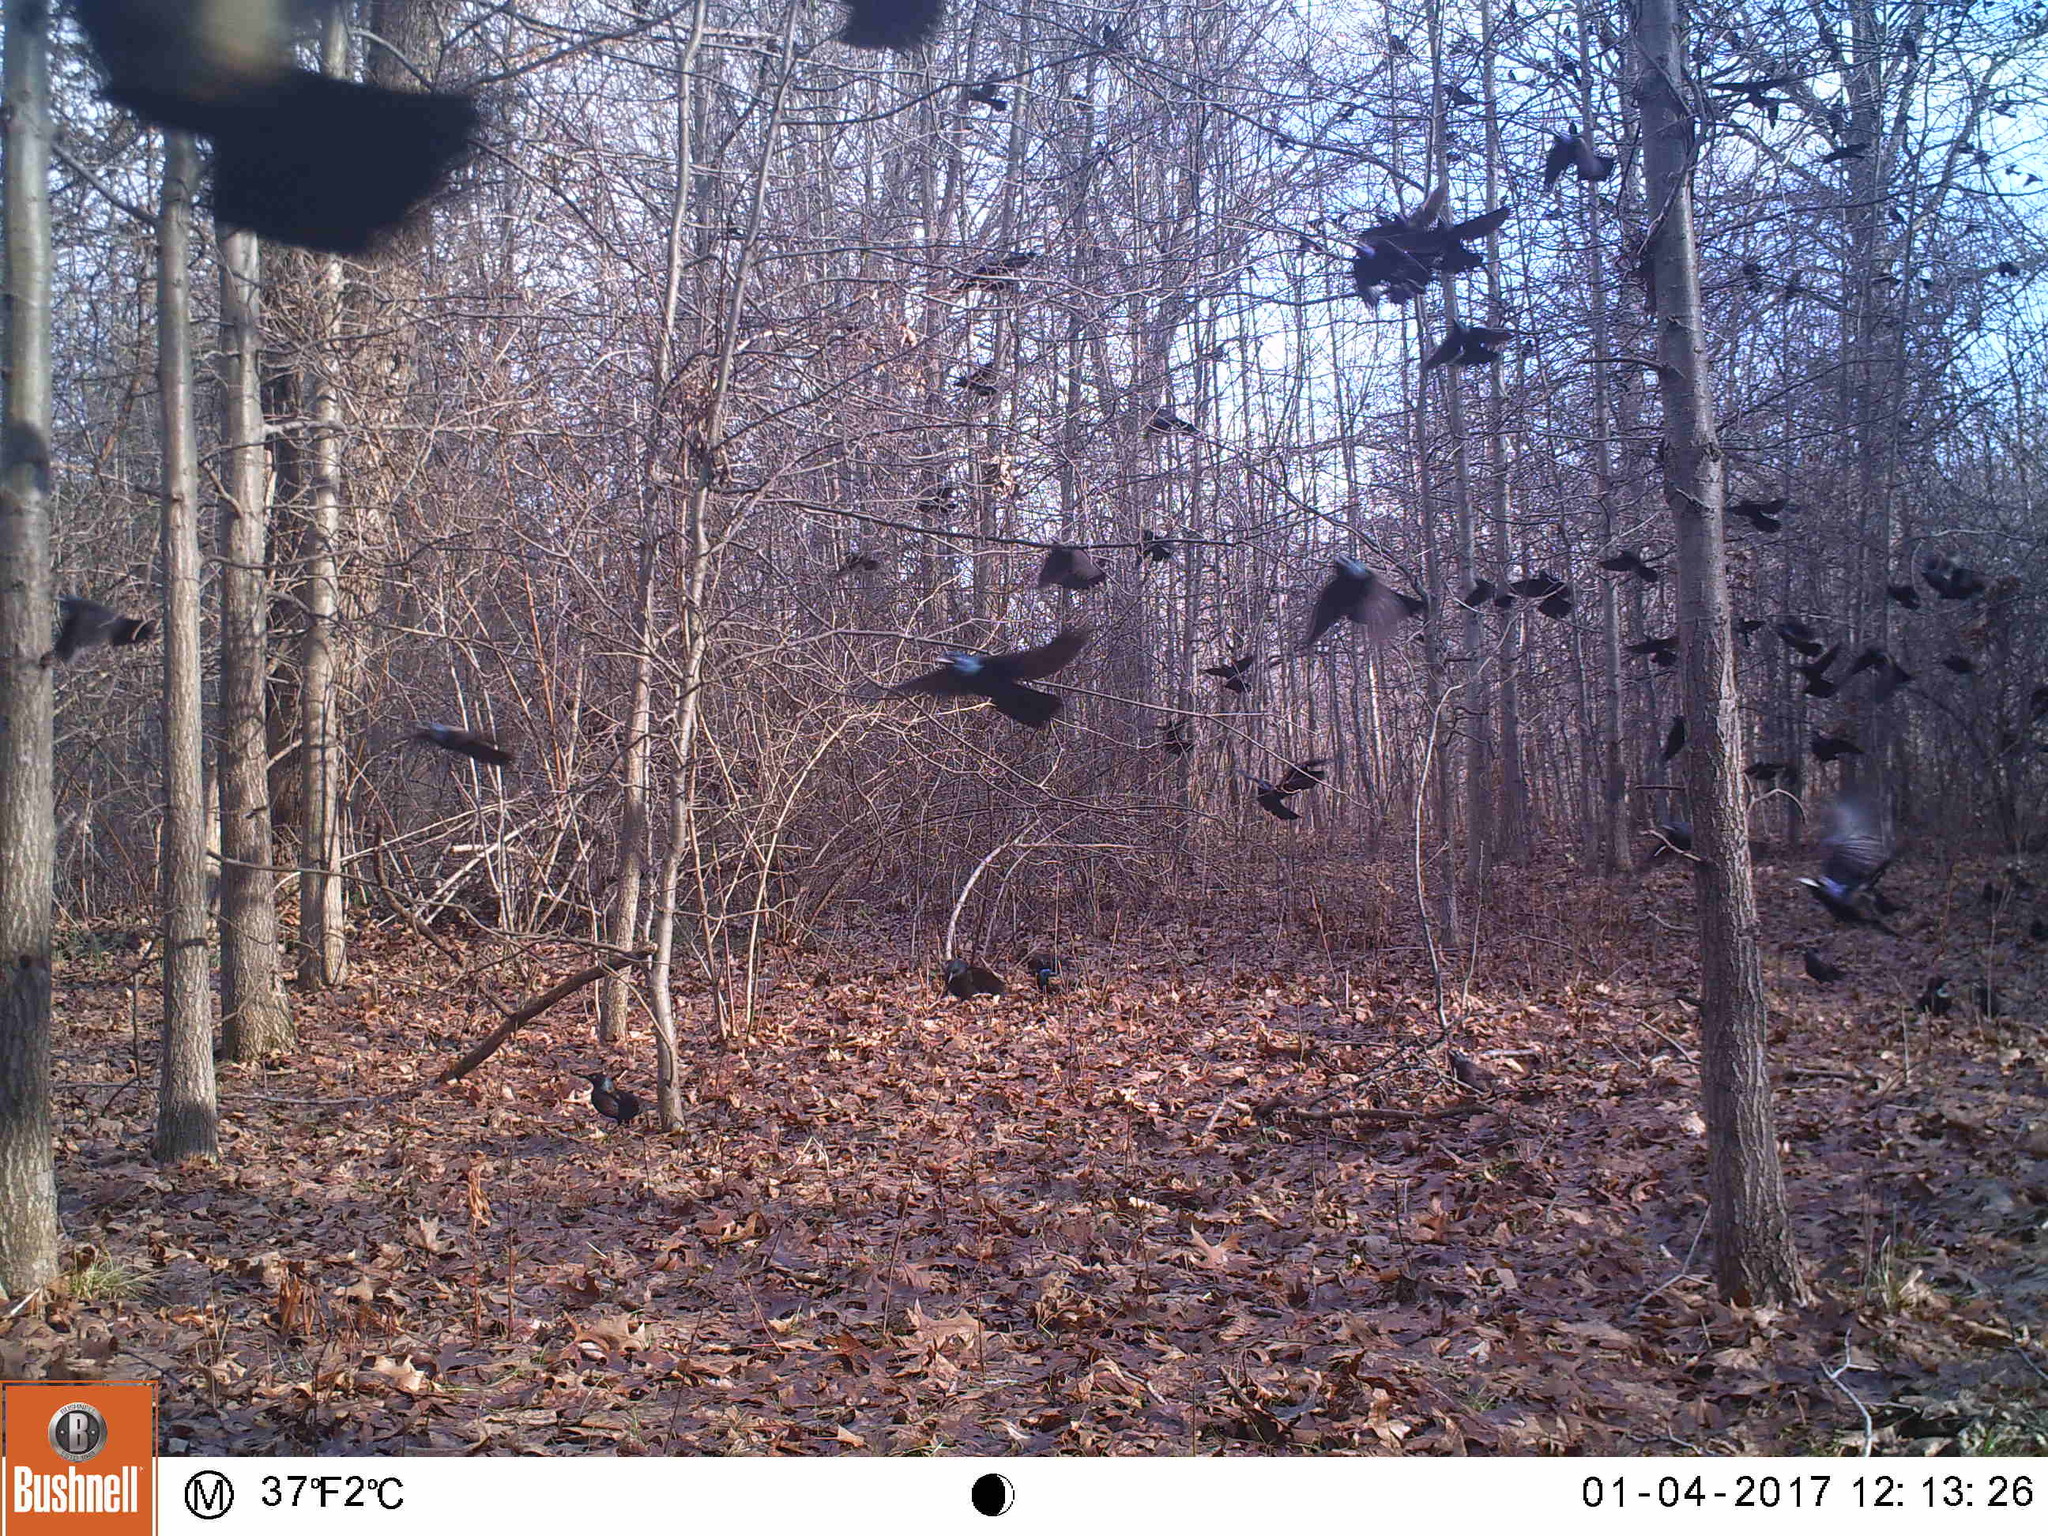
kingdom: Animalia
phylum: Chordata
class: Aves
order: Passeriformes
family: Icteridae
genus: Quiscalus
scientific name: Quiscalus quiscula
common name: Common grackle
